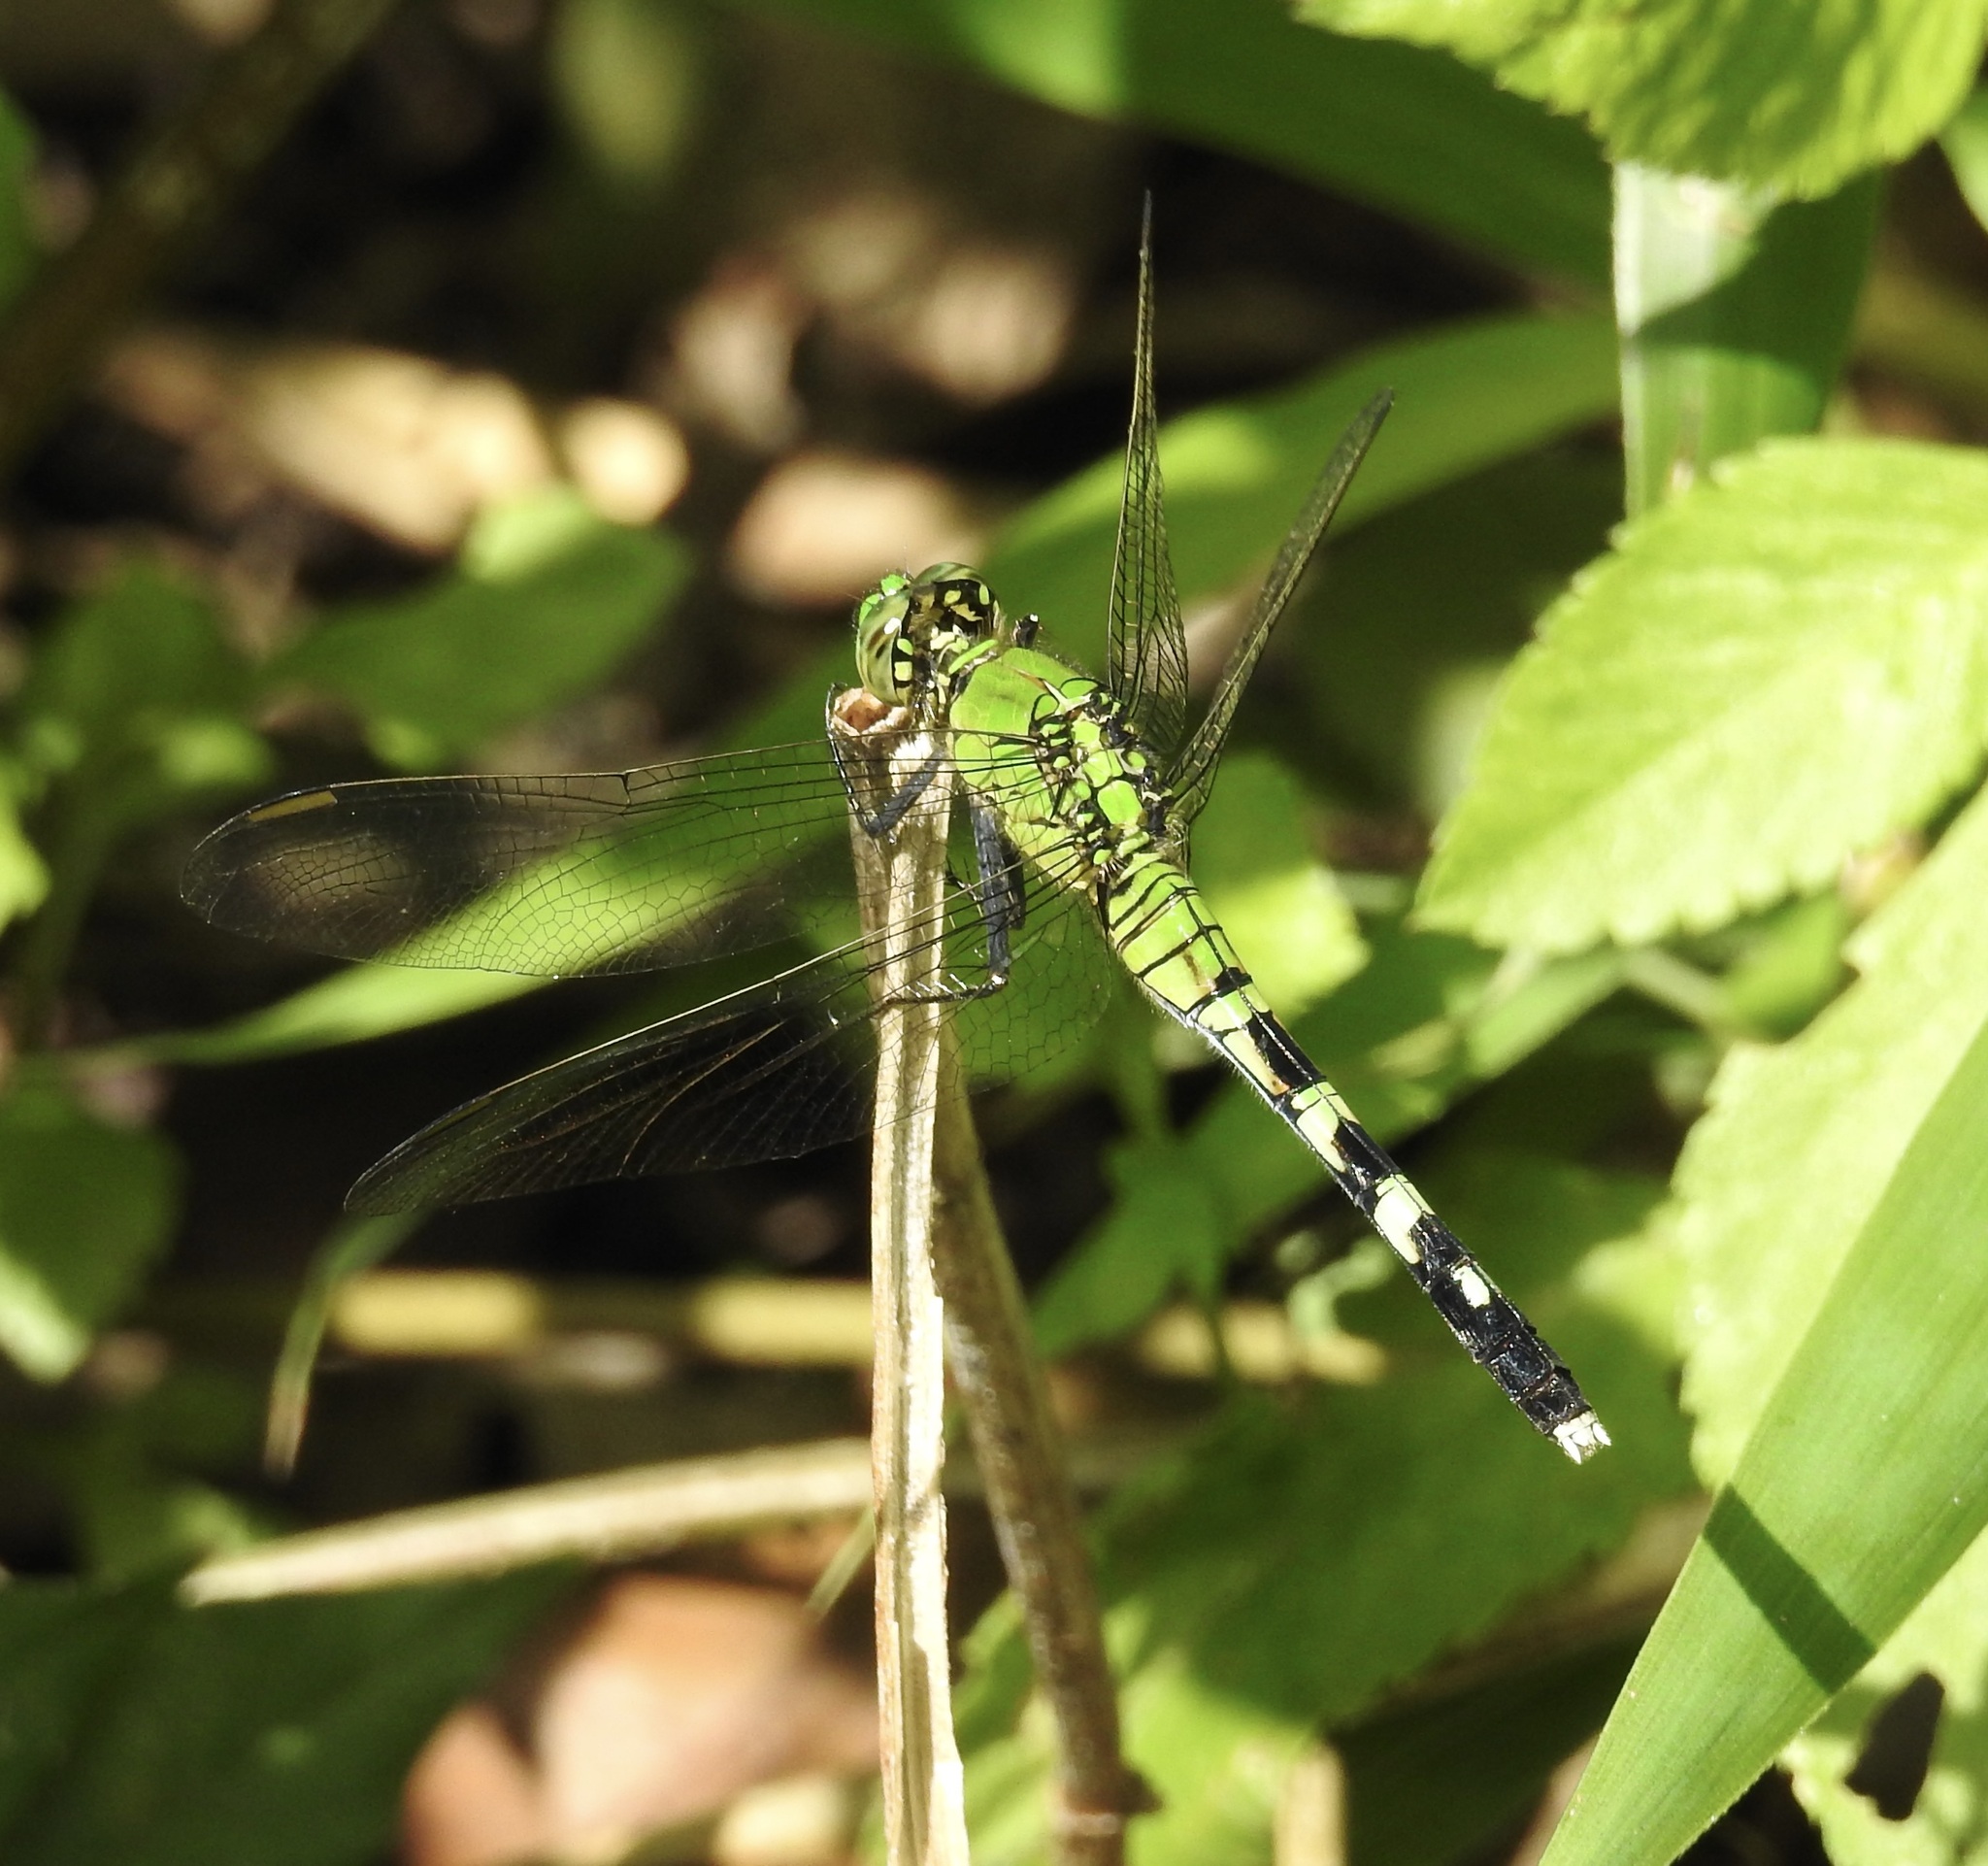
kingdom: Animalia
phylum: Arthropoda
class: Insecta
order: Odonata
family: Libellulidae
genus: Erythemis
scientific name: Erythemis simplicicollis
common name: Eastern pondhawk
